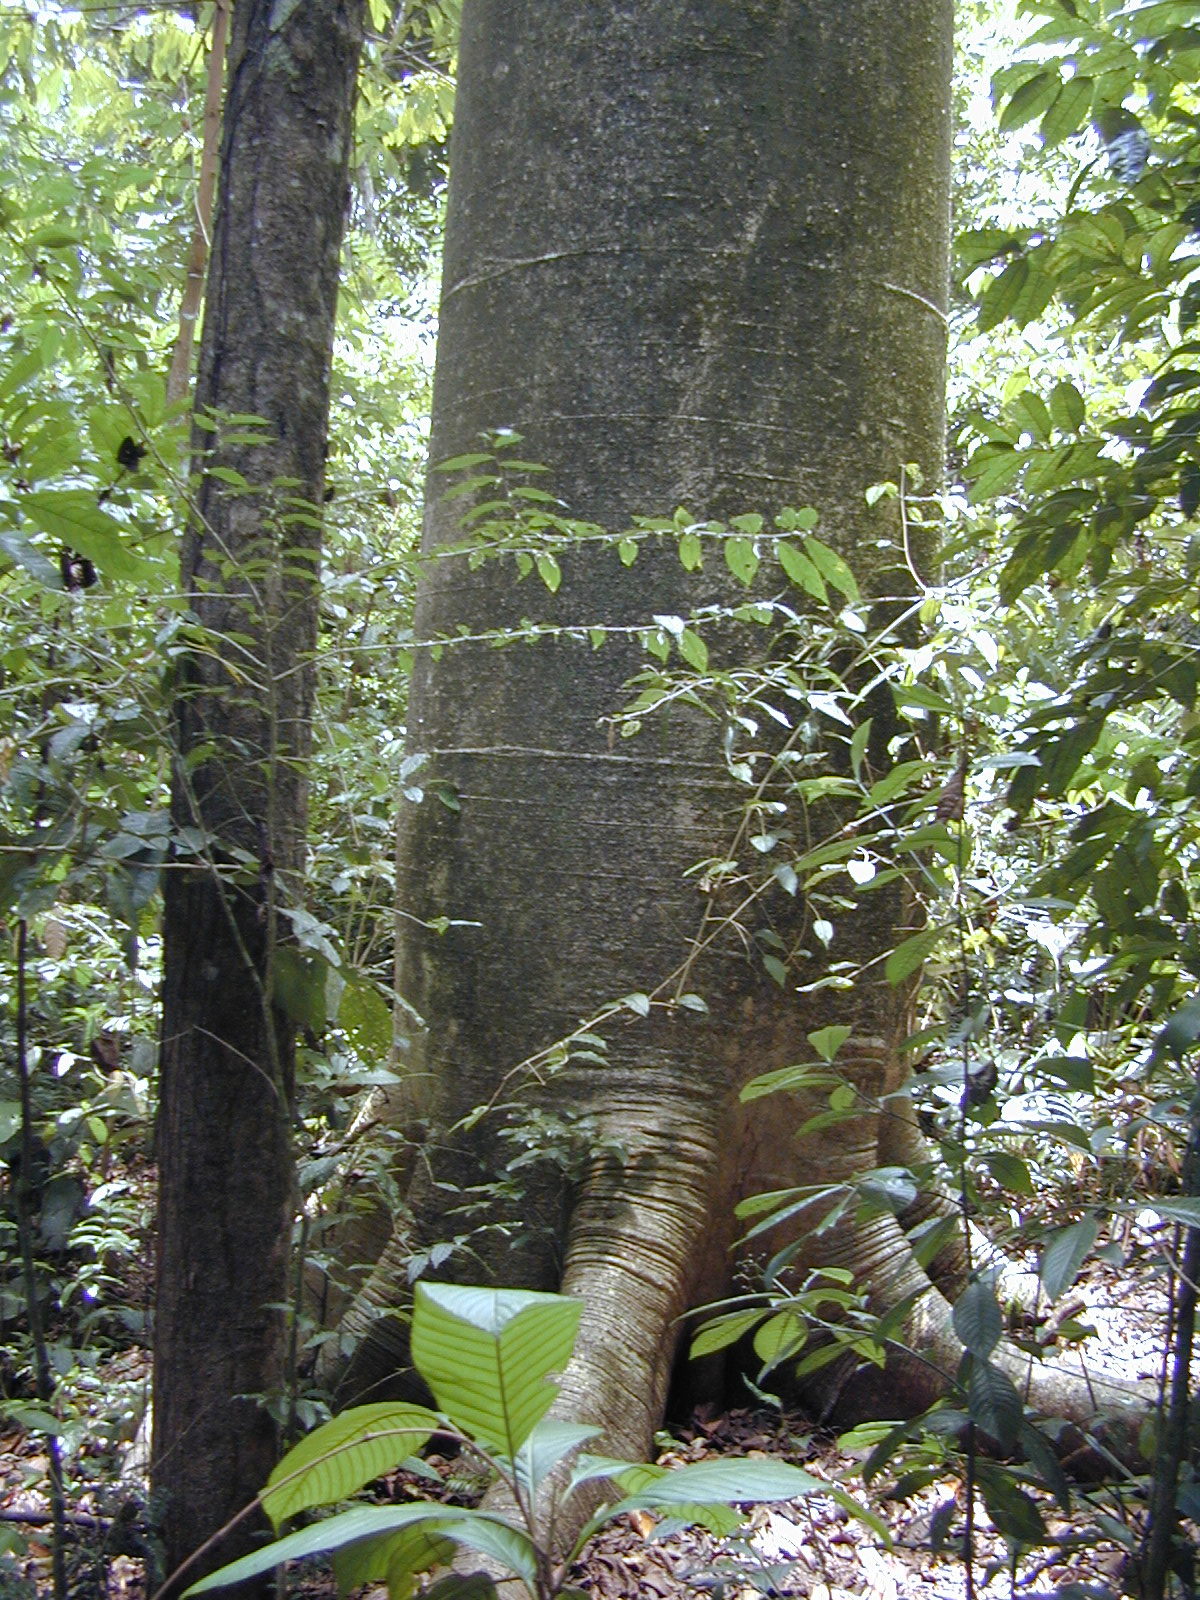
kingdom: Plantae
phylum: Tracheophyta
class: Magnoliopsida
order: Malvales
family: Malvaceae
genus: Cavanillesia
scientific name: Cavanillesia platanifolia
